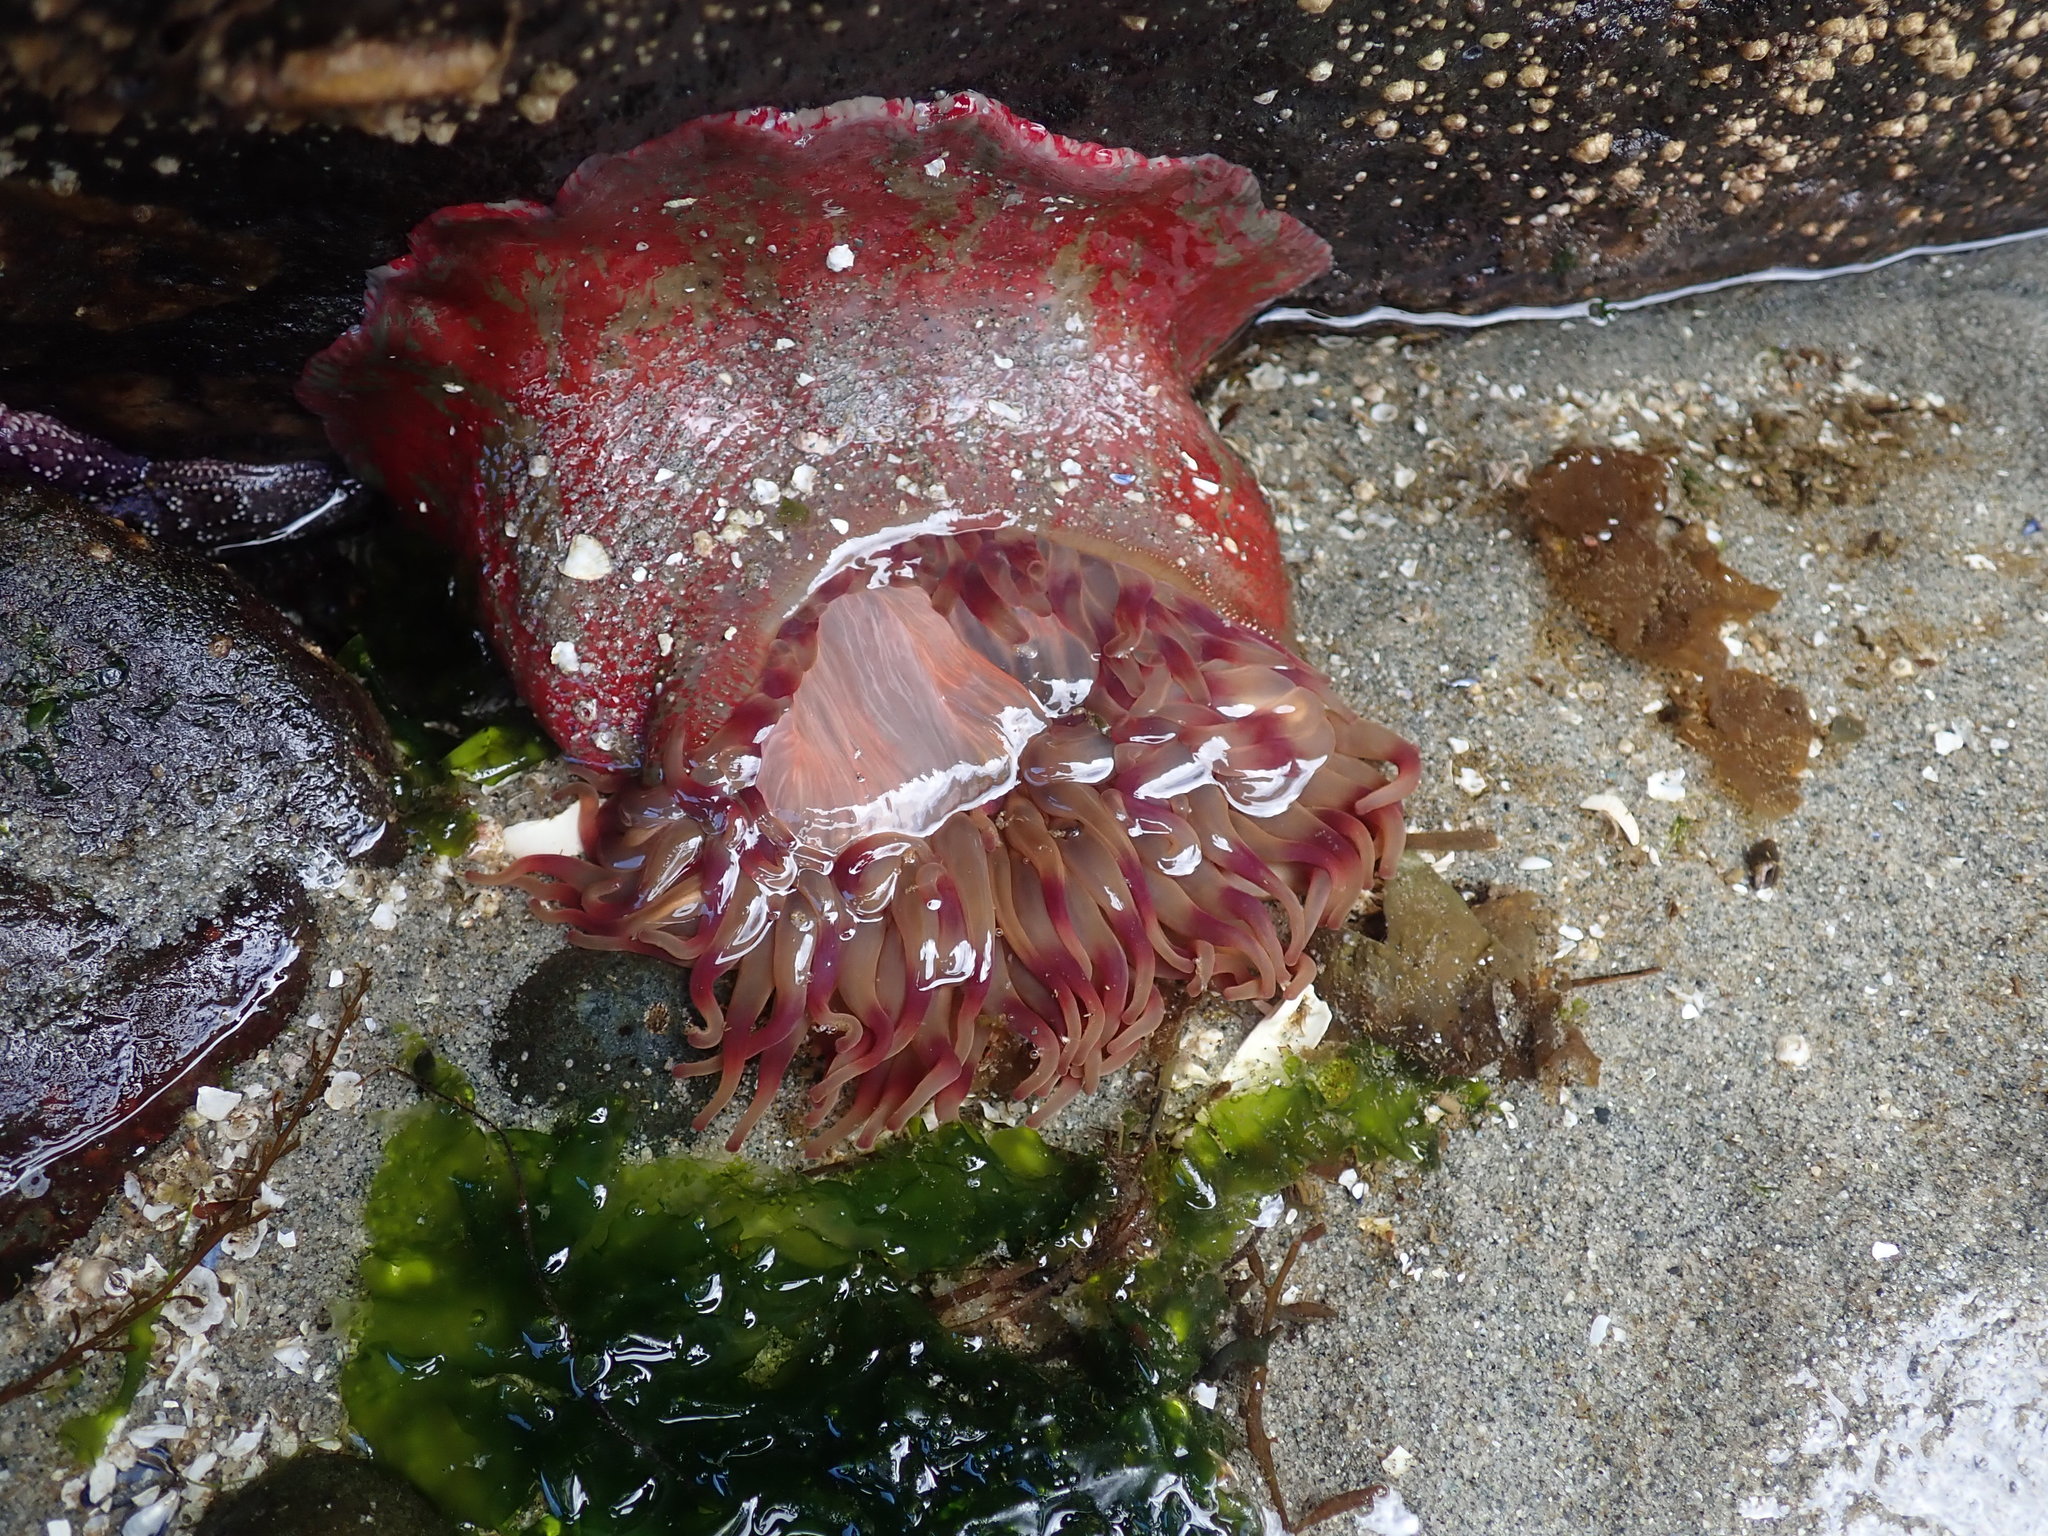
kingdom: Animalia
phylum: Cnidaria
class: Anthozoa
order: Actiniaria
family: Actiniidae
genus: Urticina
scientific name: Urticina grebelnyi
